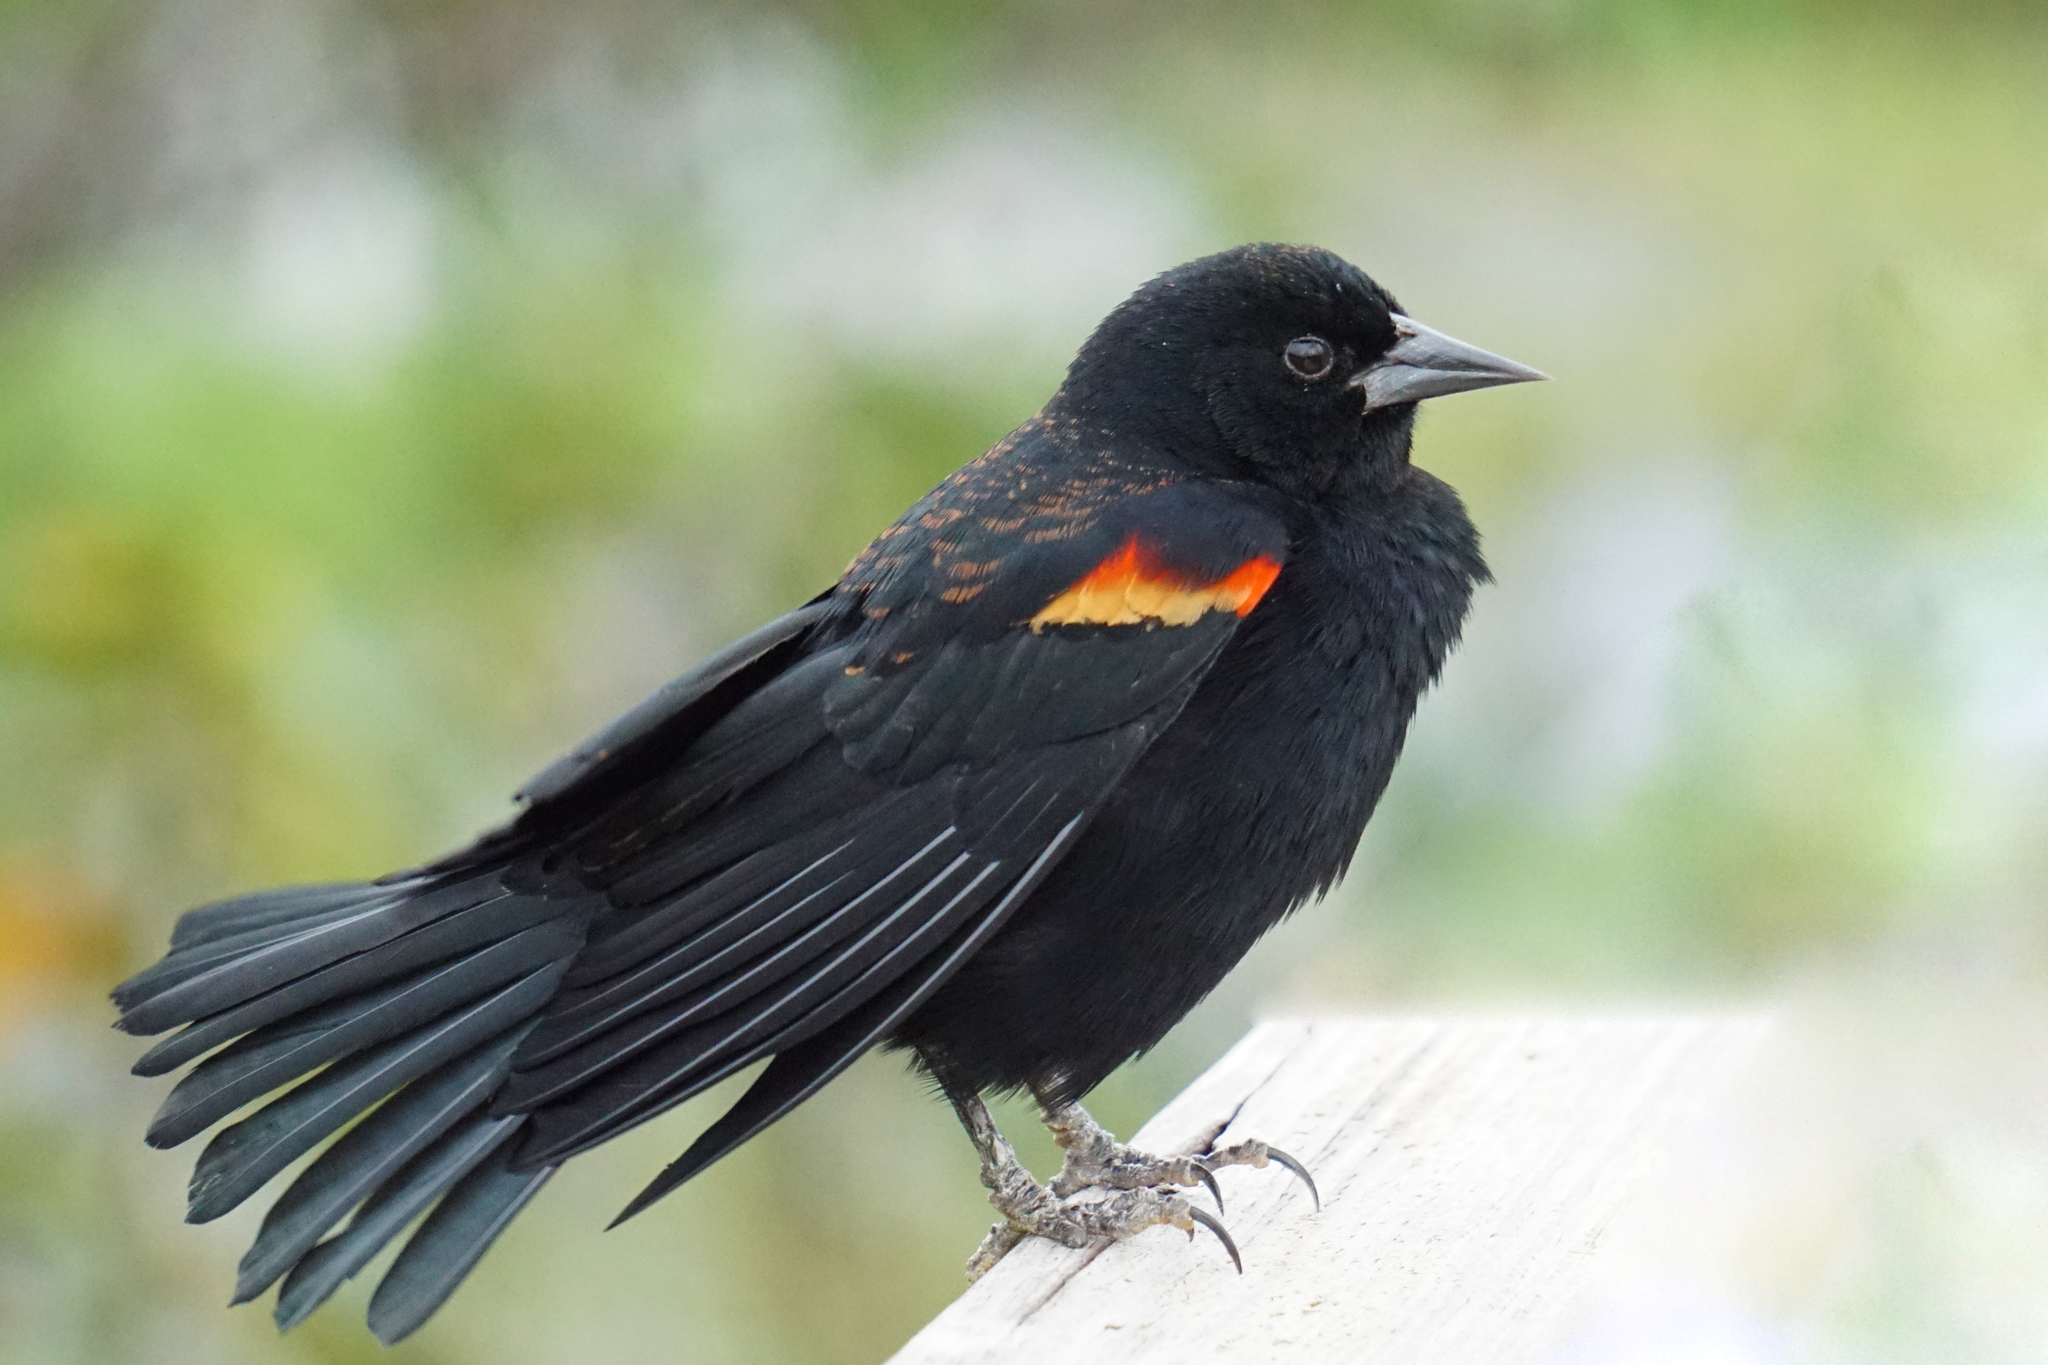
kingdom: Animalia
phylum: Chordata
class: Aves
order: Passeriformes
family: Icteridae
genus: Agelaius
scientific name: Agelaius phoeniceus
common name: Red-winged blackbird
